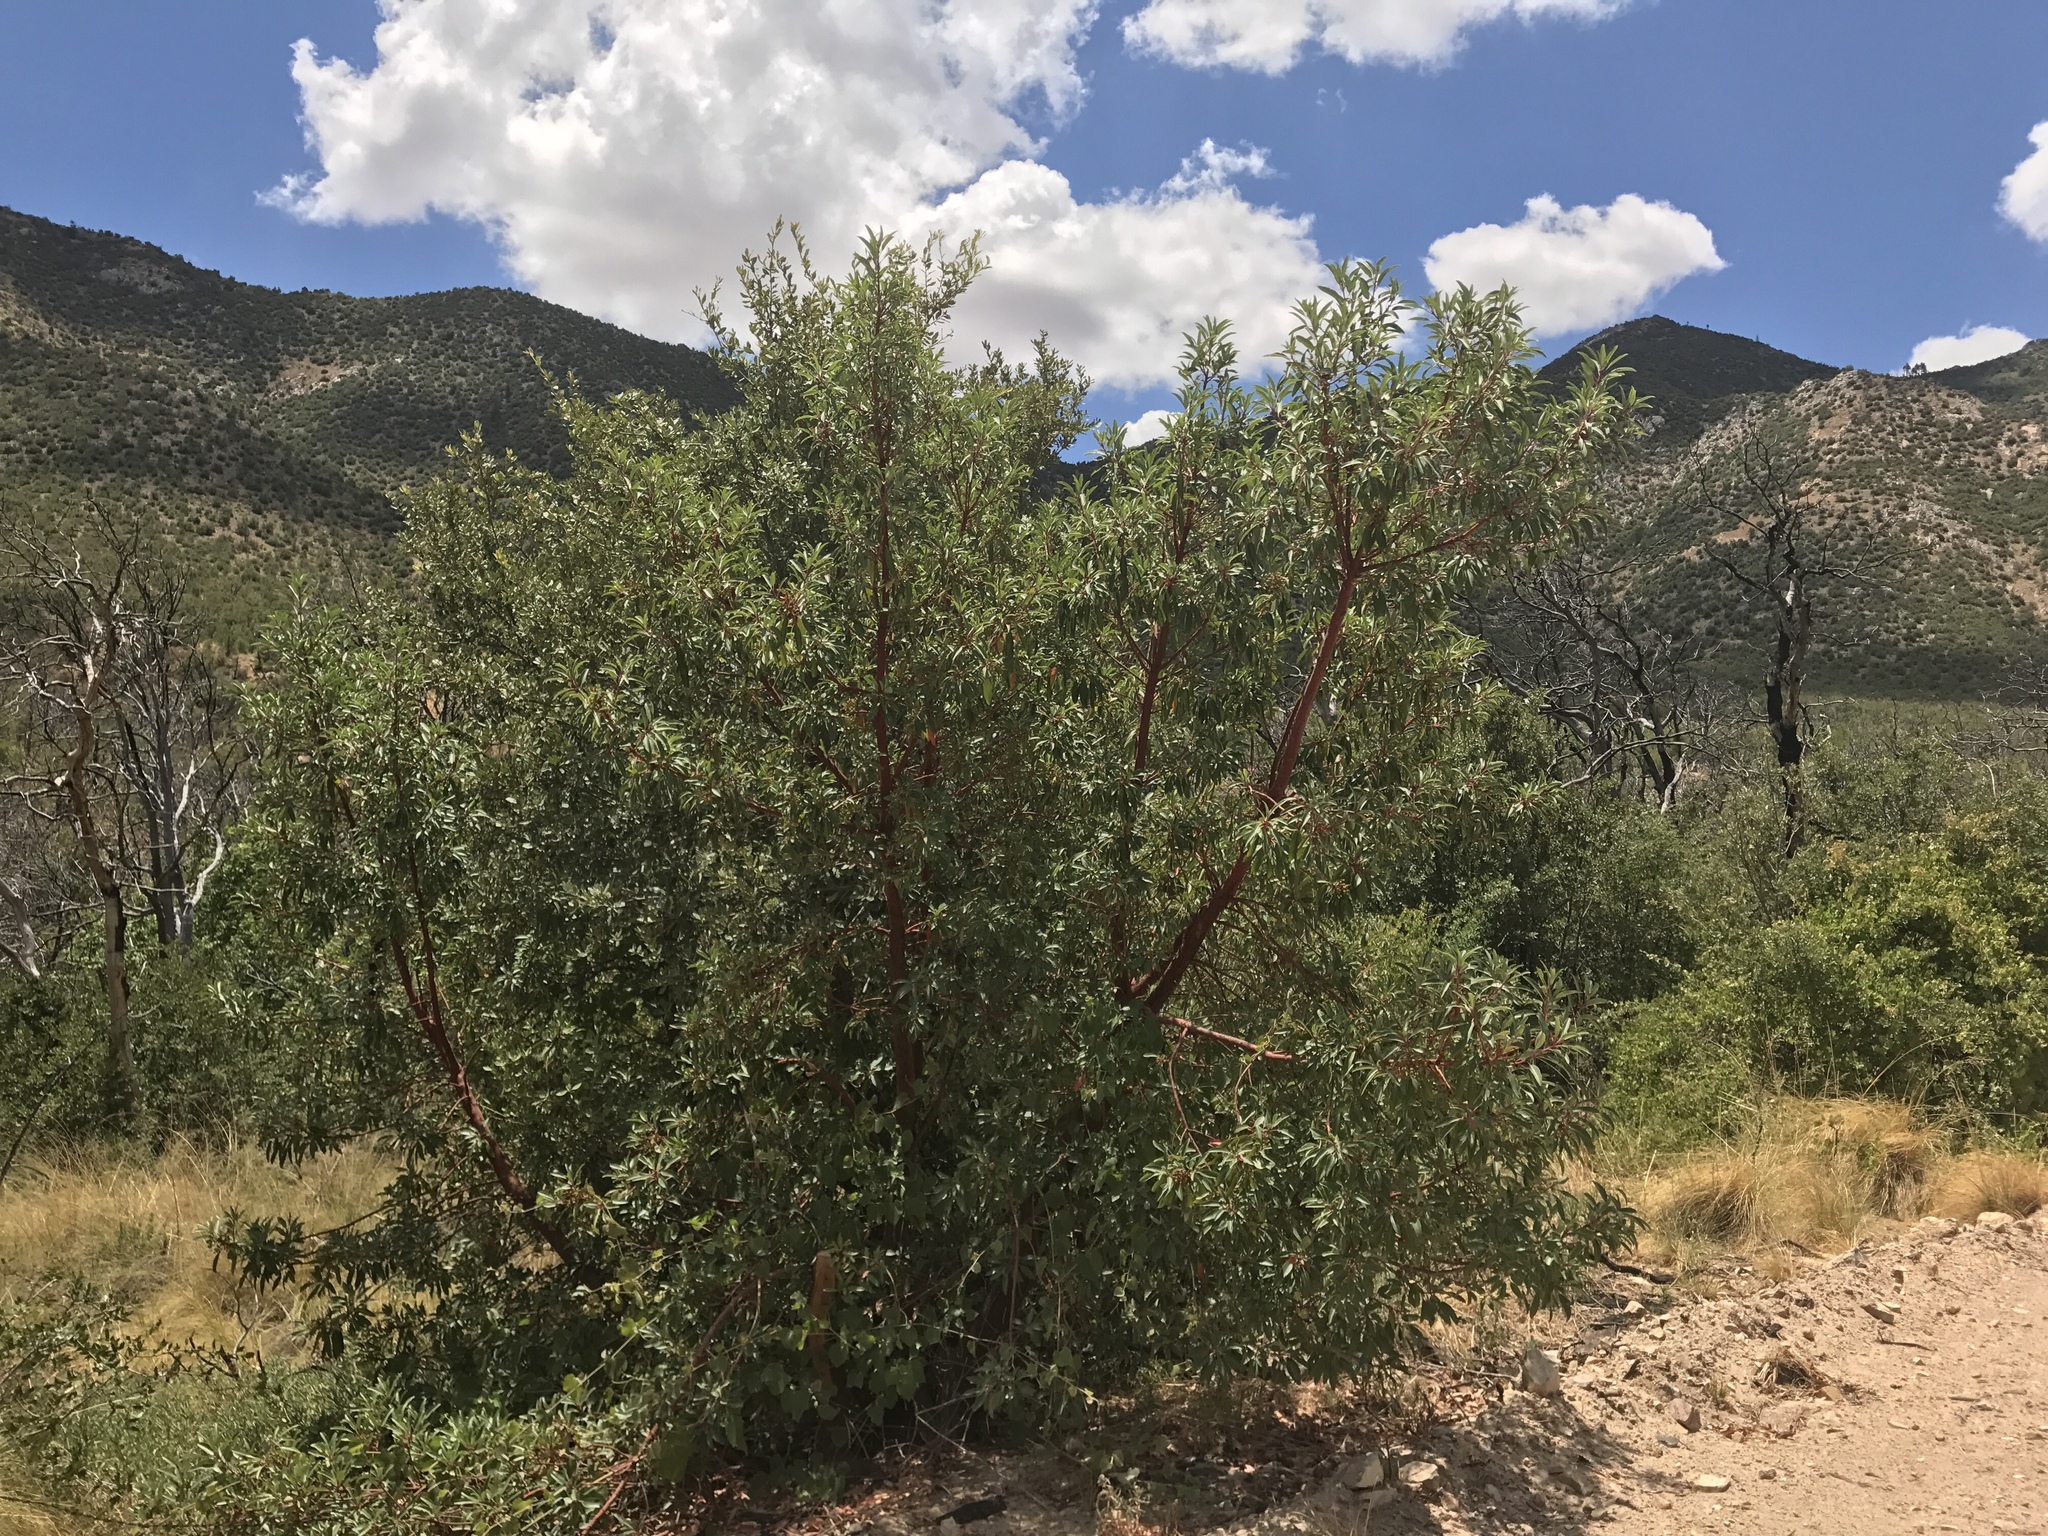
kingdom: Plantae
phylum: Tracheophyta
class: Magnoliopsida
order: Ericales
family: Ericaceae
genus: Arbutus
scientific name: Arbutus arizonica
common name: Arizona madrone
